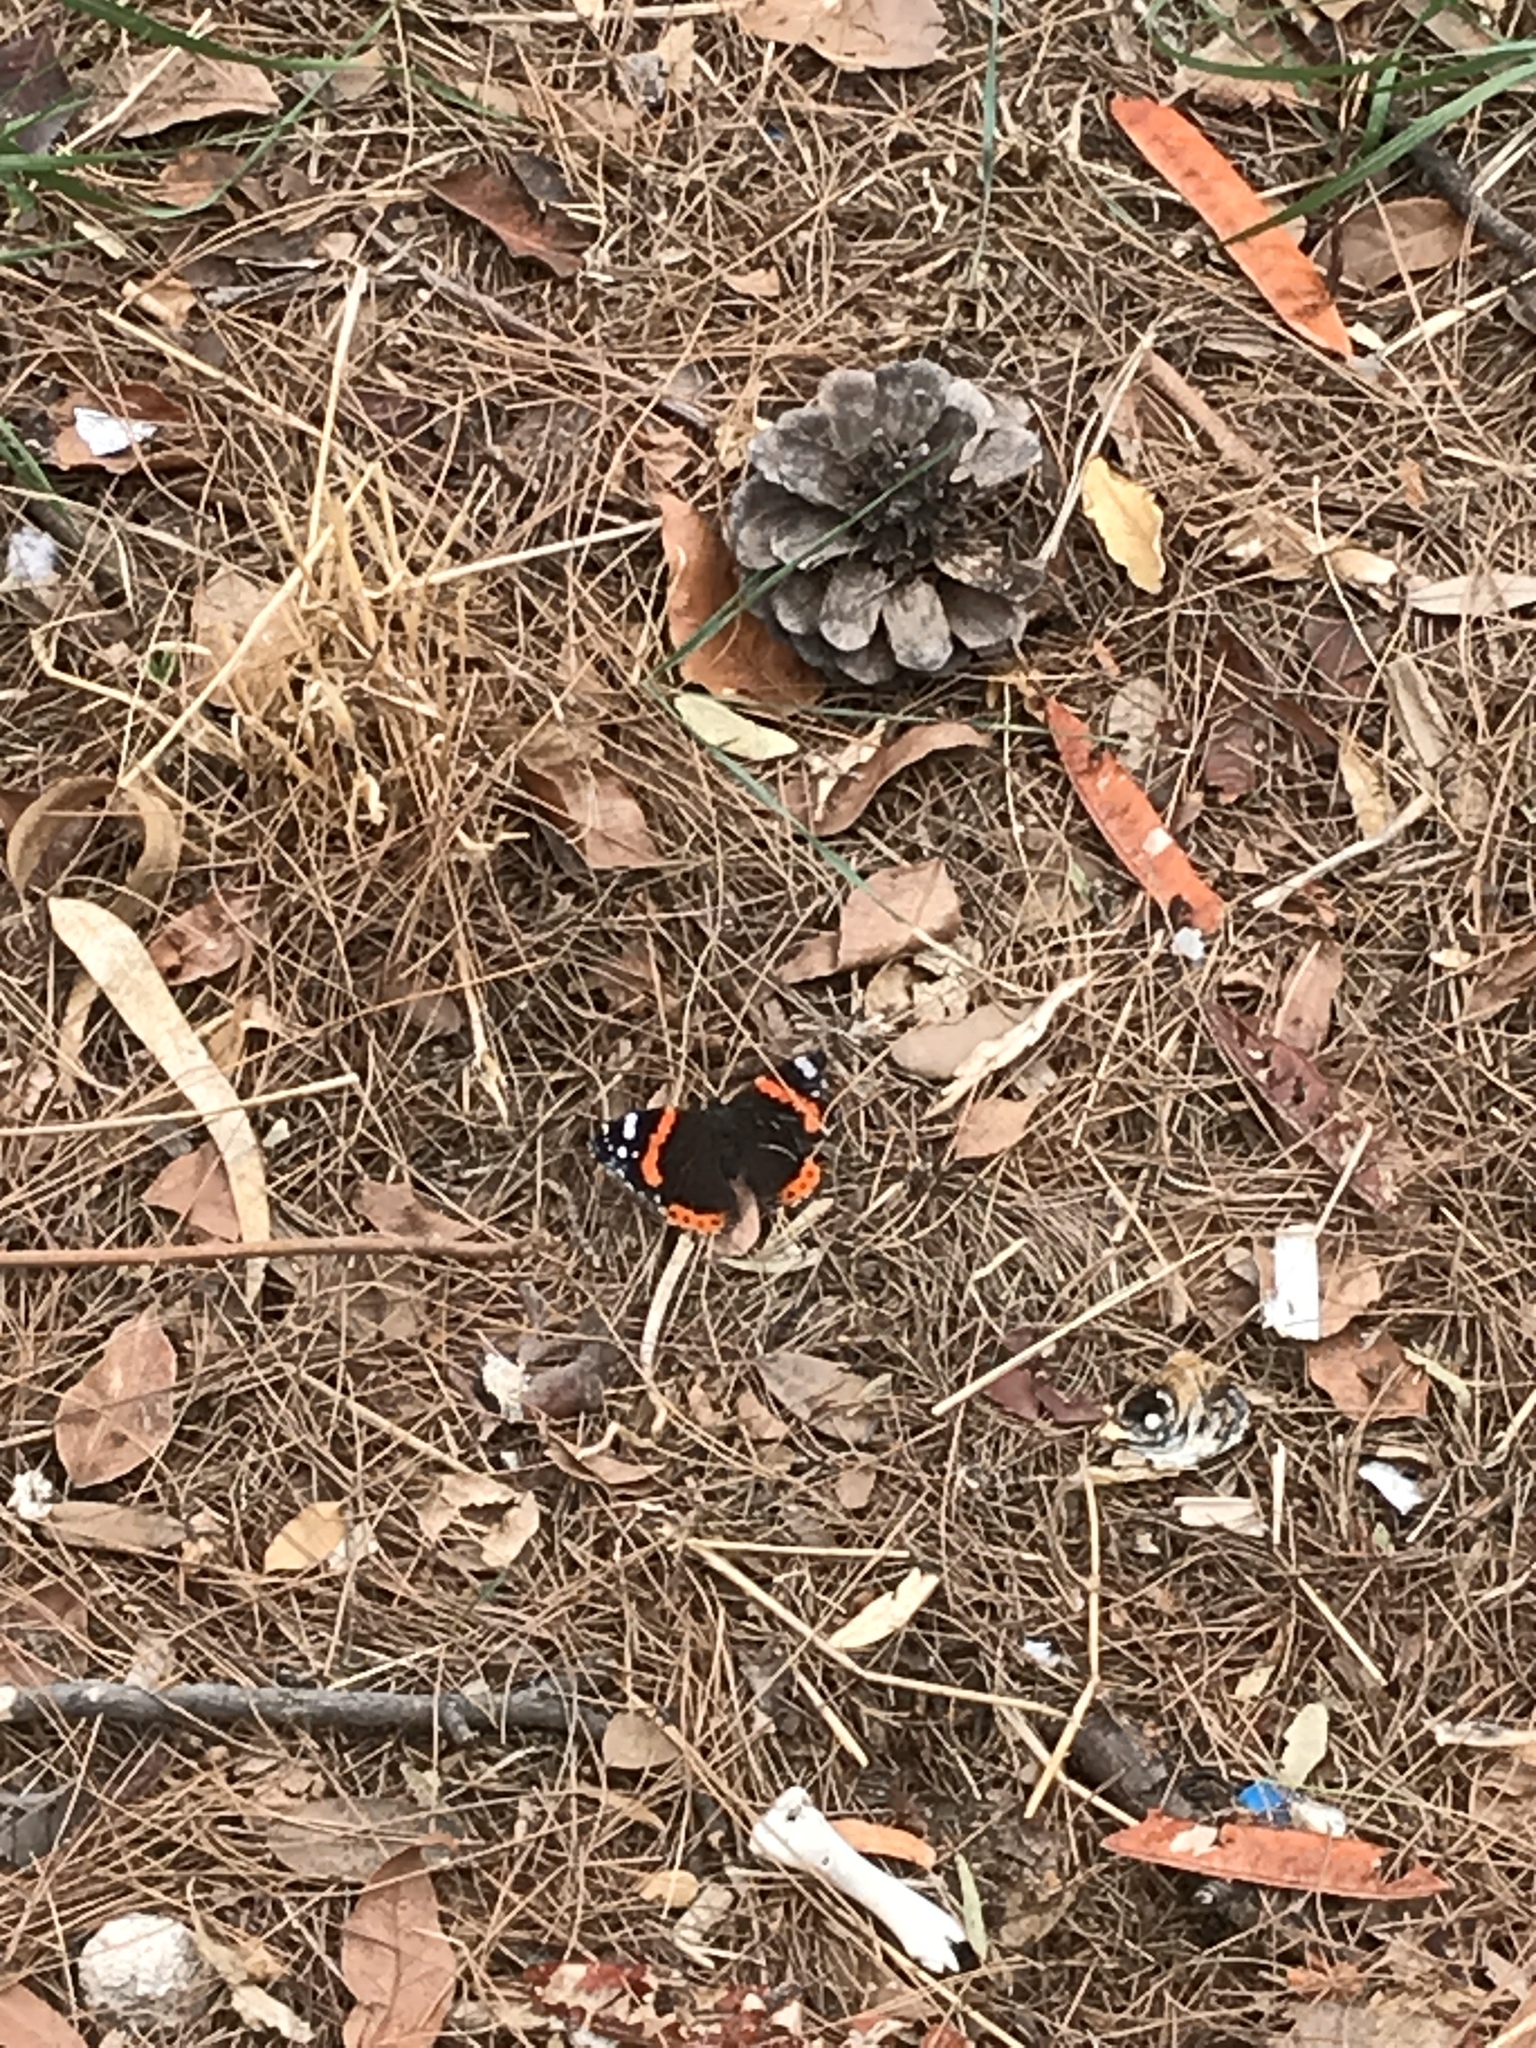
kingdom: Animalia
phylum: Arthropoda
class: Insecta
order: Lepidoptera
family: Nymphalidae
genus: Vanessa
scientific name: Vanessa atalanta
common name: Red admiral
